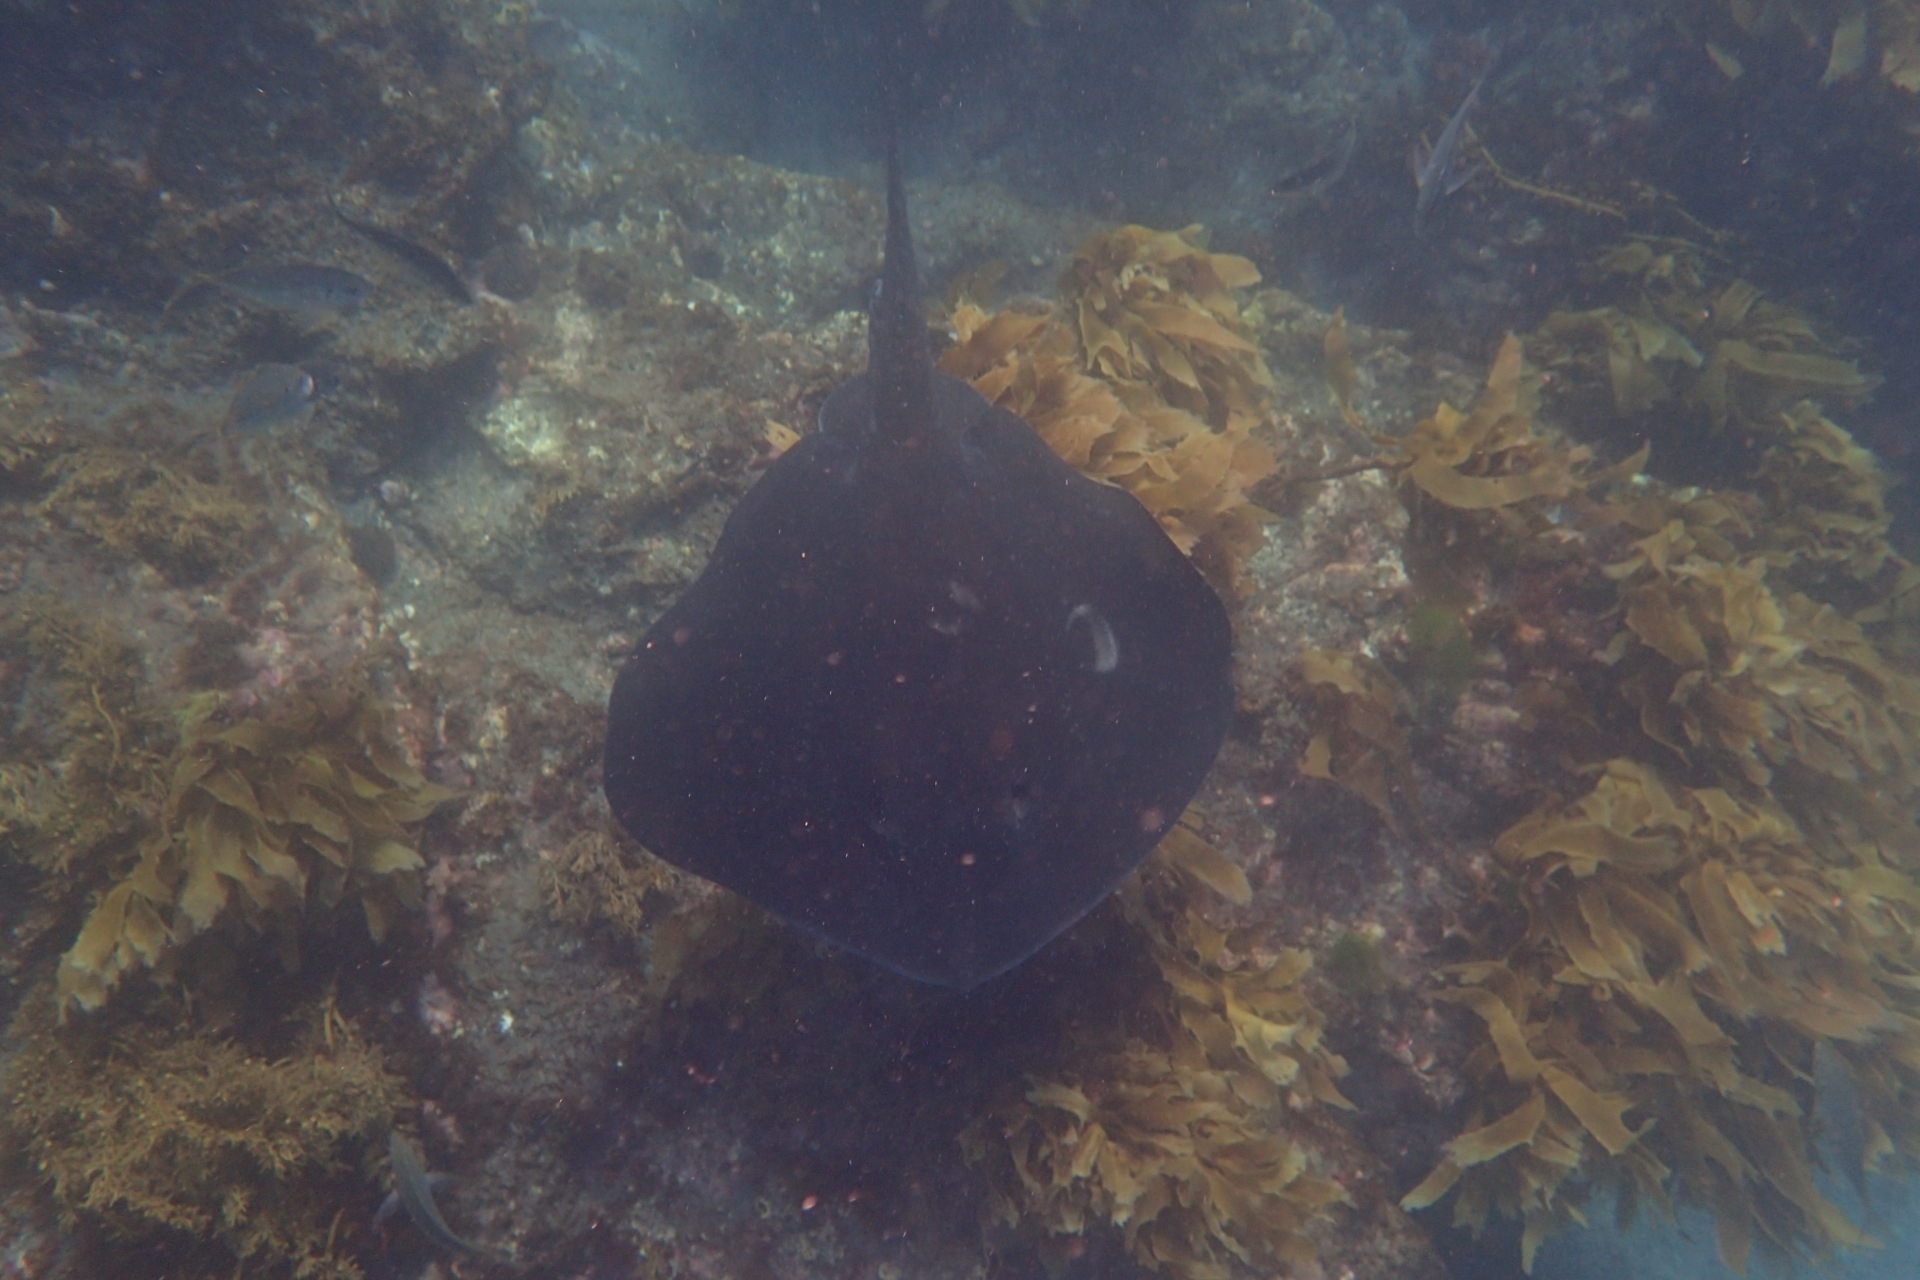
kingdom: Animalia
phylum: Chordata
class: Elasmobranchii
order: Myliobatiformes
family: Dasyatidae
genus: Bathytoshia
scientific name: Bathytoshia brevicaudata
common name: Short-tail stingray
